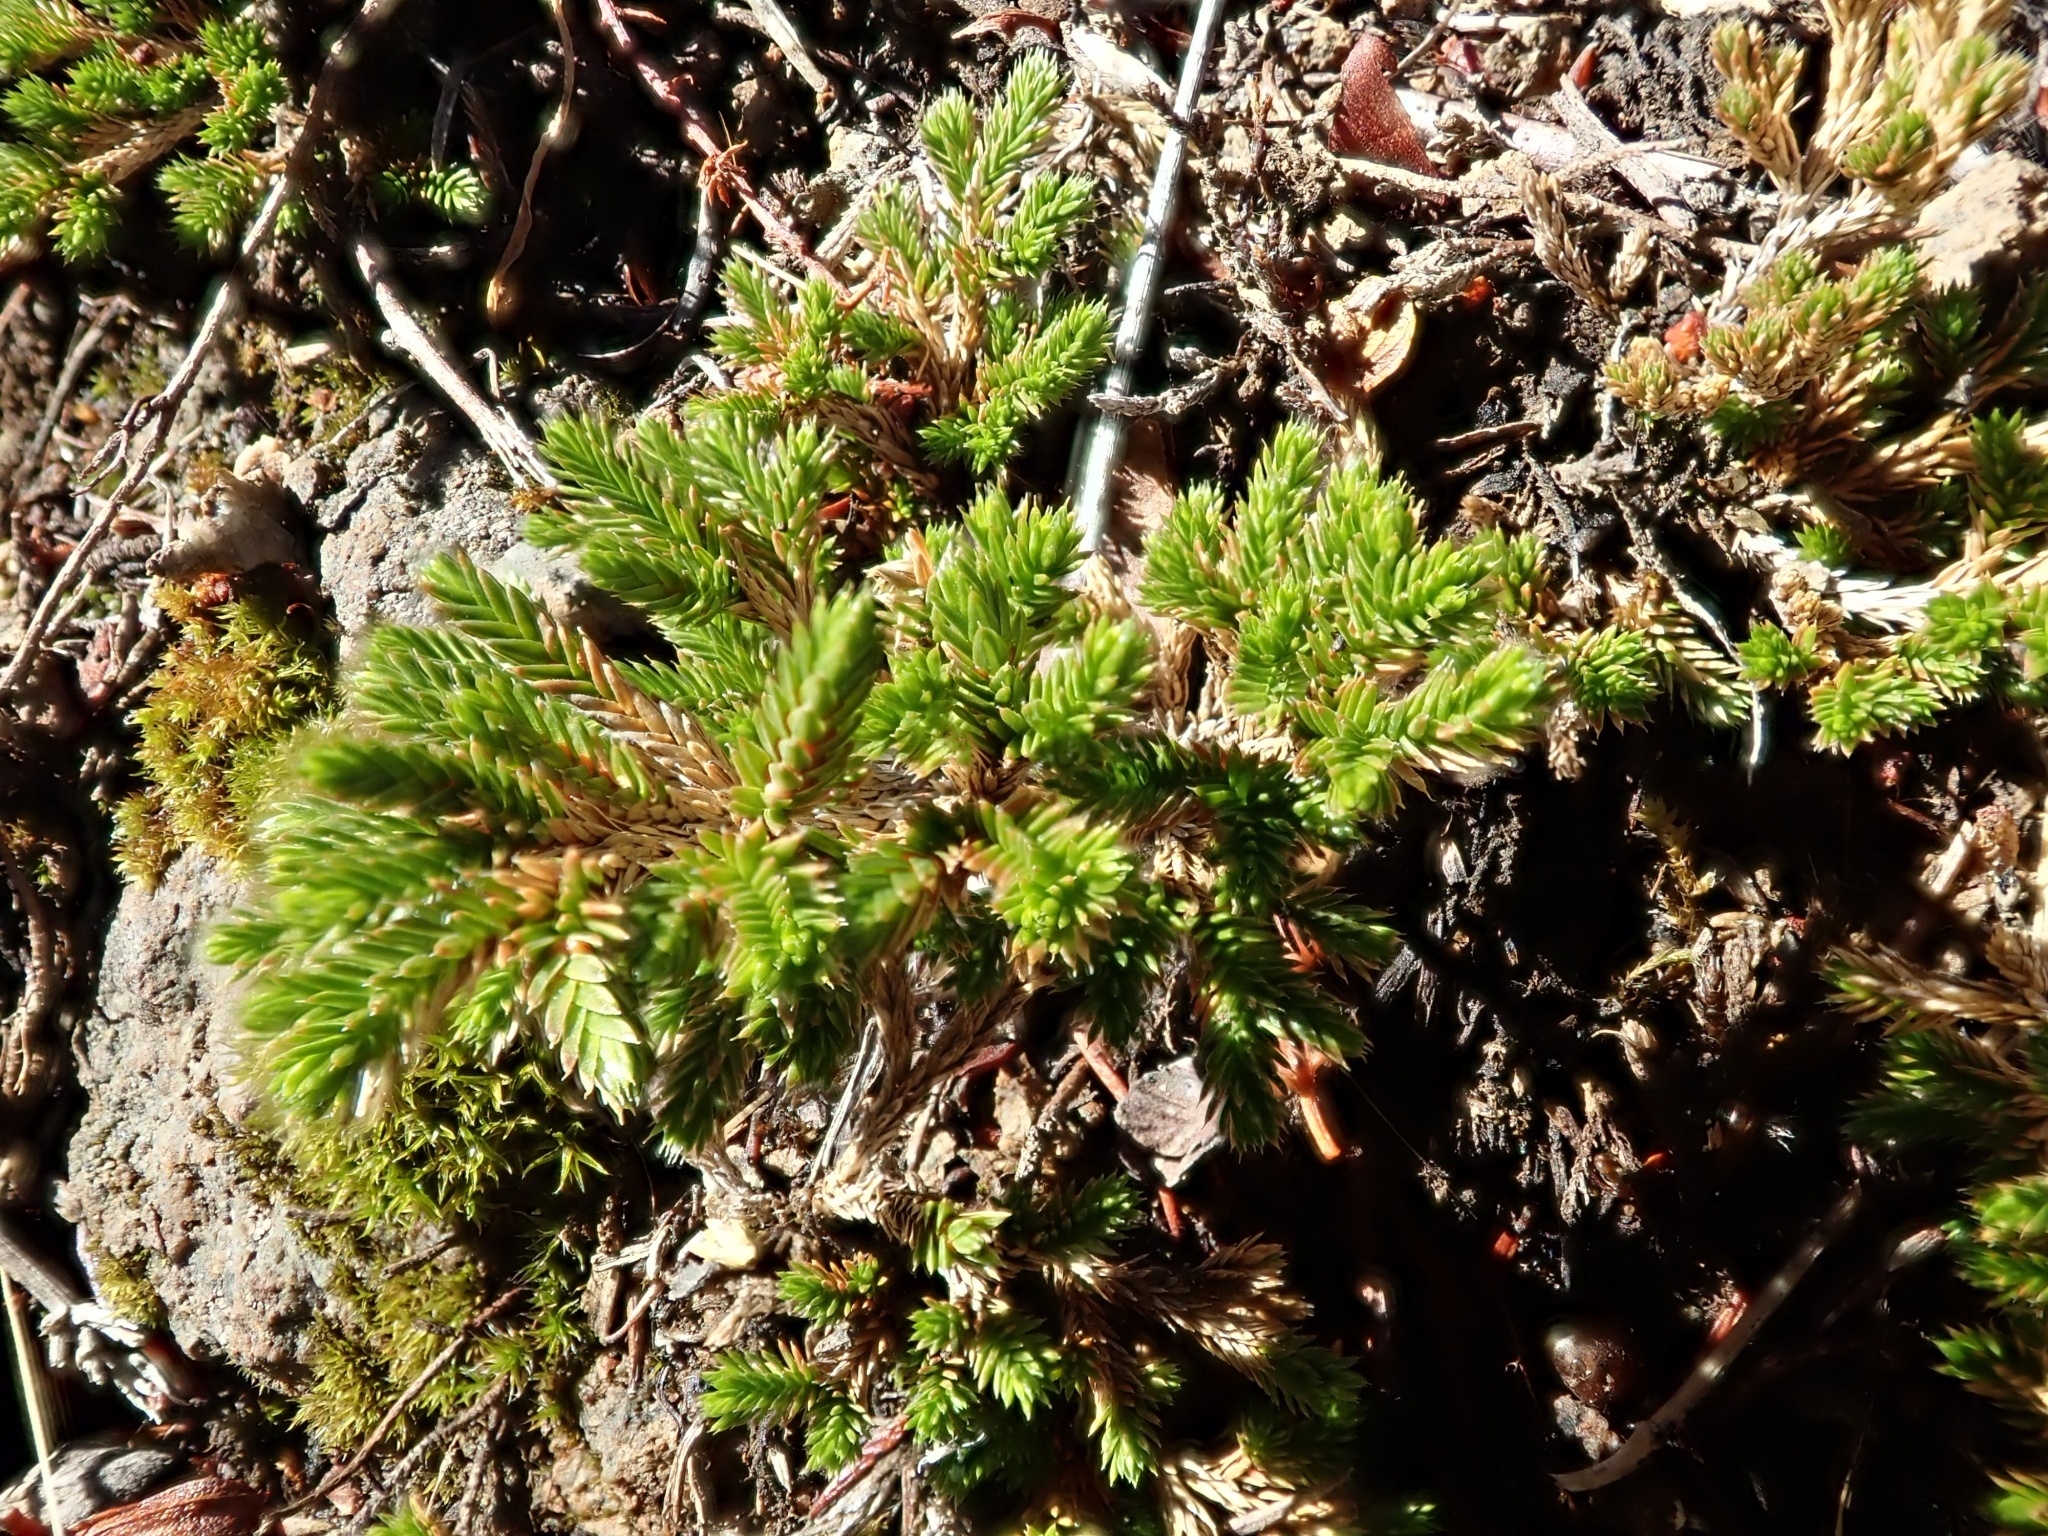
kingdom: Plantae
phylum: Tracheophyta
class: Lycopodiopsida
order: Selaginellales
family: Selaginellaceae
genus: Selaginella
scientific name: Selaginella bigelovii
